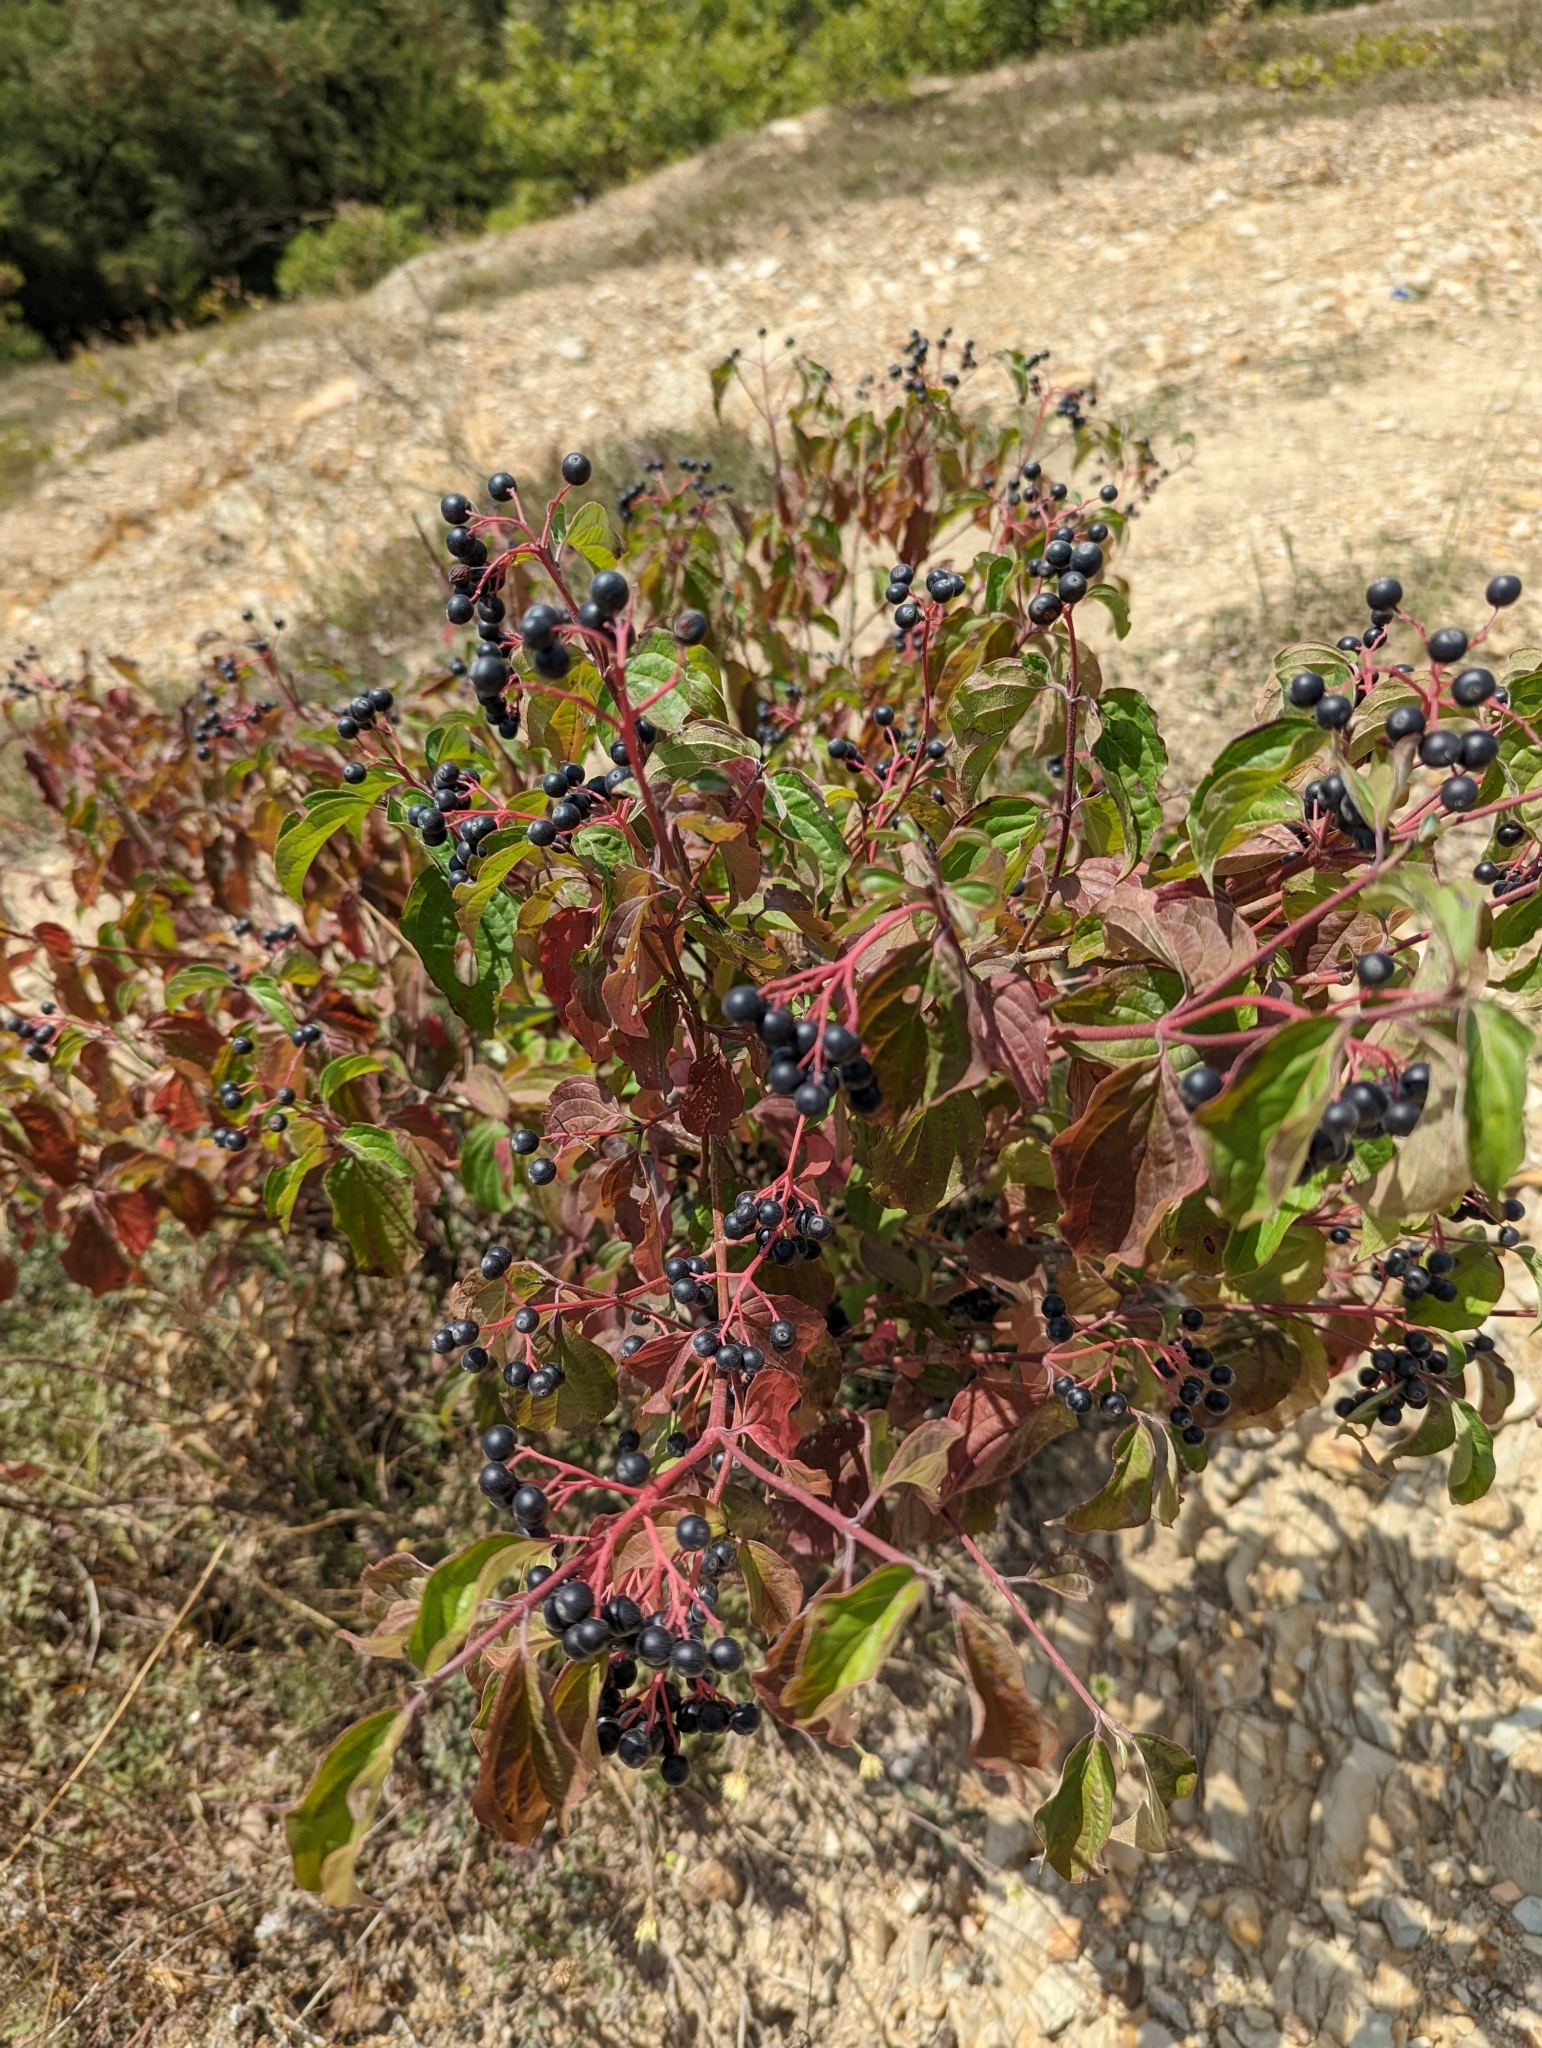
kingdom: Plantae
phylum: Tracheophyta
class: Magnoliopsida
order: Cornales
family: Cornaceae
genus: Cornus
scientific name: Cornus sanguinea
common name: Dogwood
